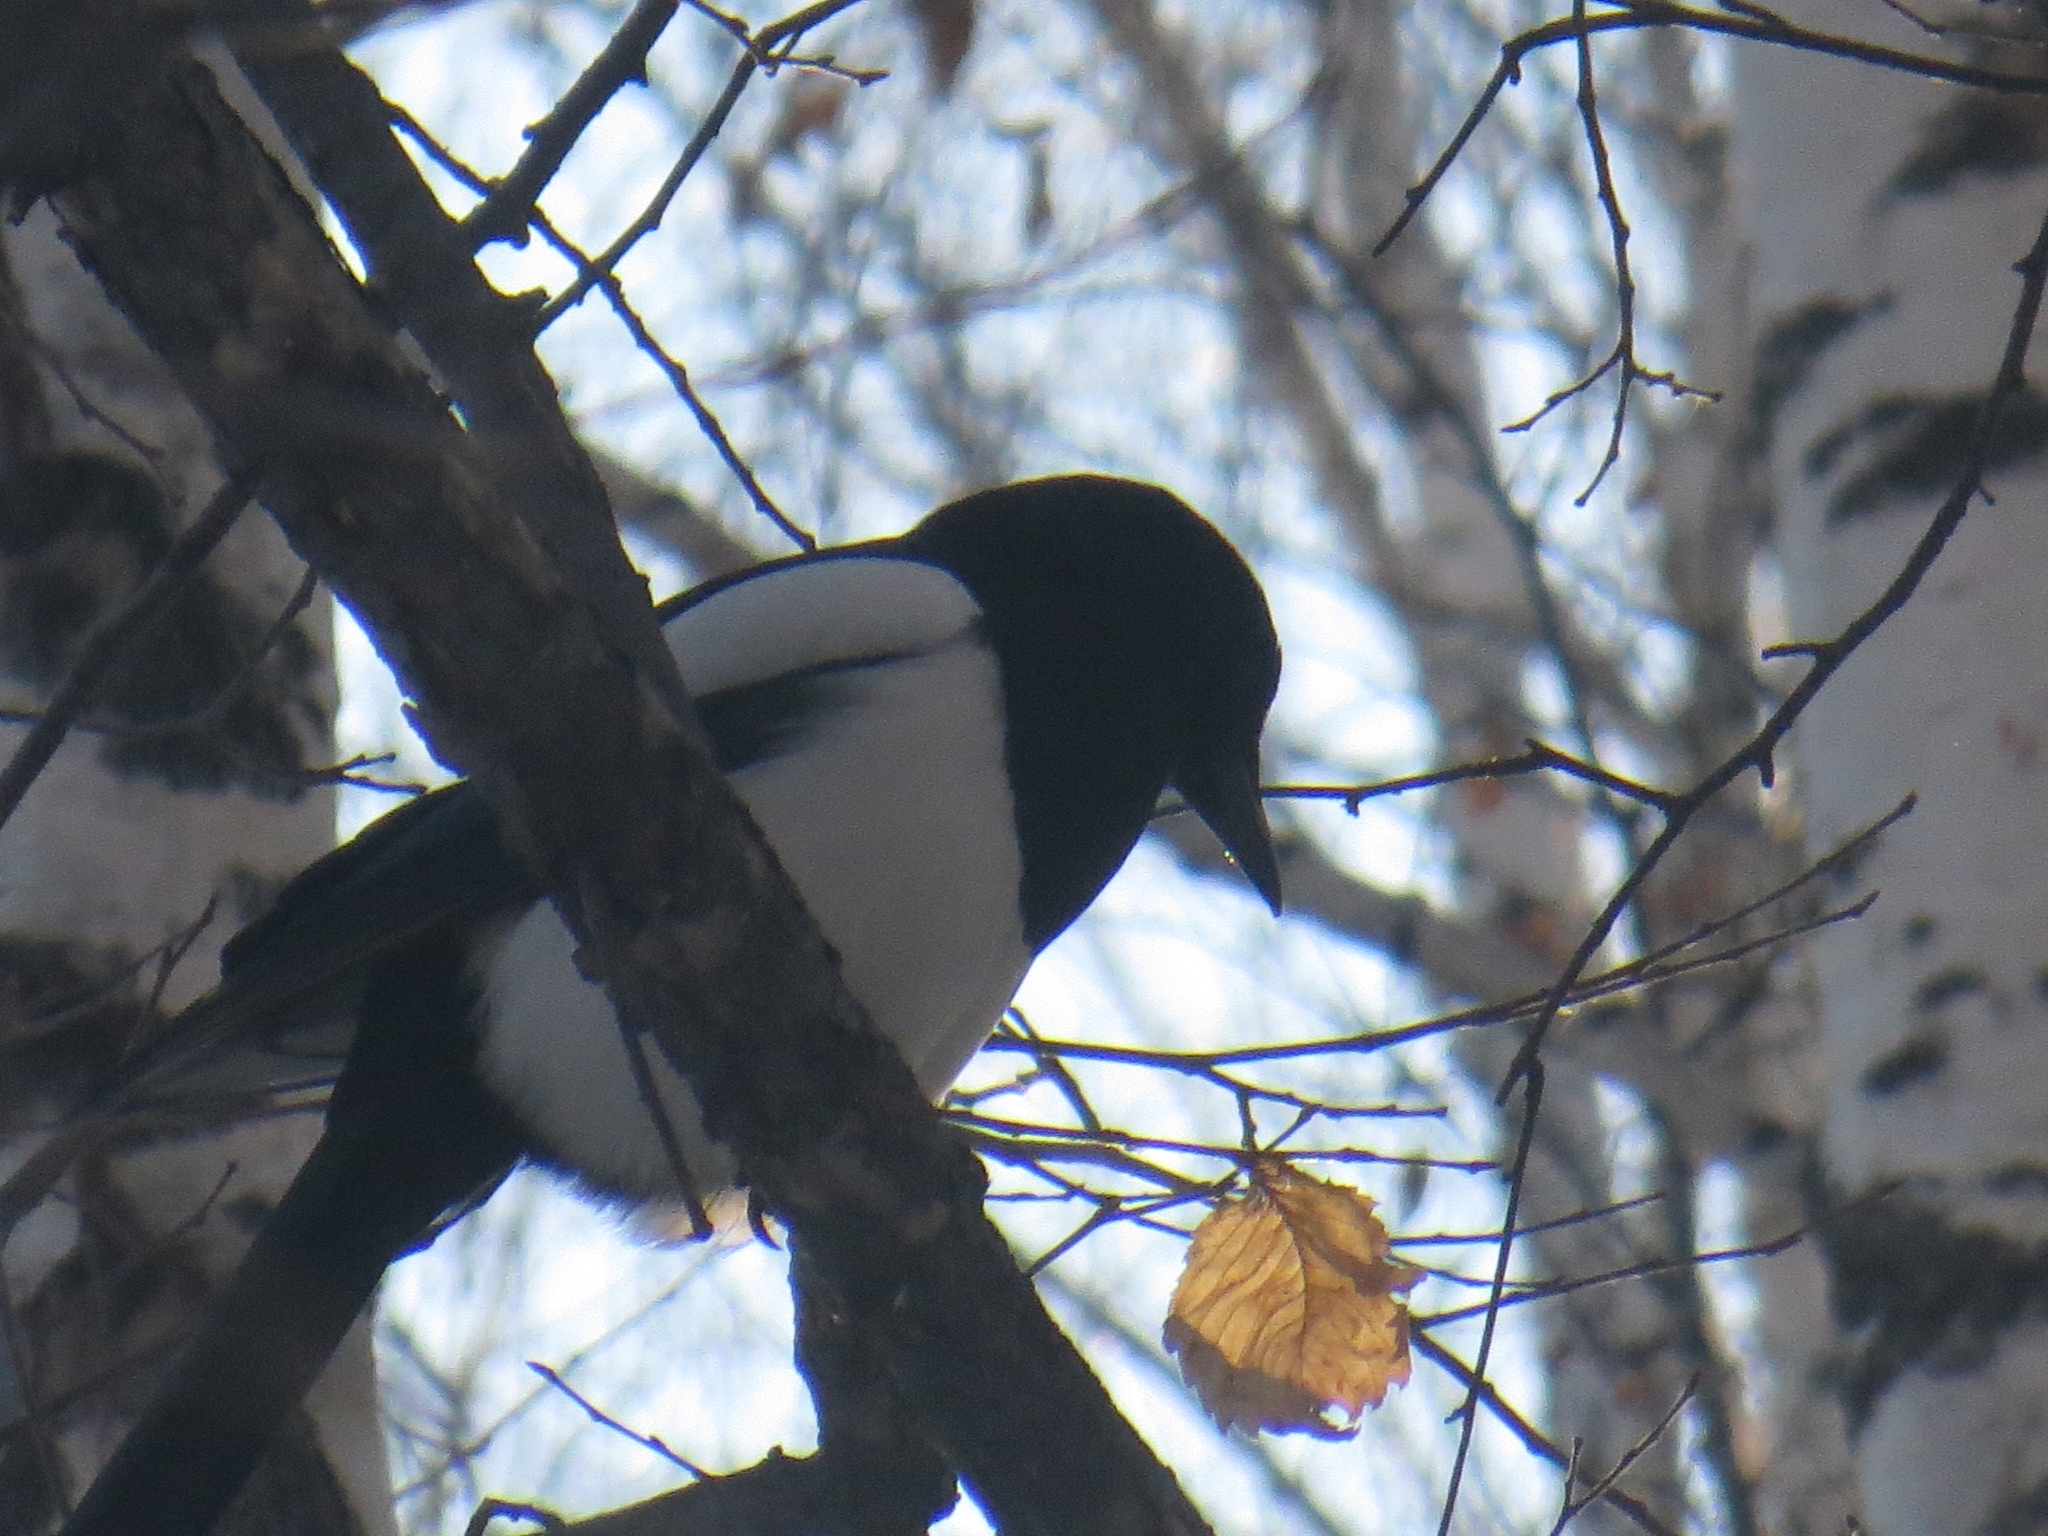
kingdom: Animalia
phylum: Chordata
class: Aves
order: Passeriformes
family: Corvidae
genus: Pica
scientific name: Pica pica
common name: Eurasian magpie
